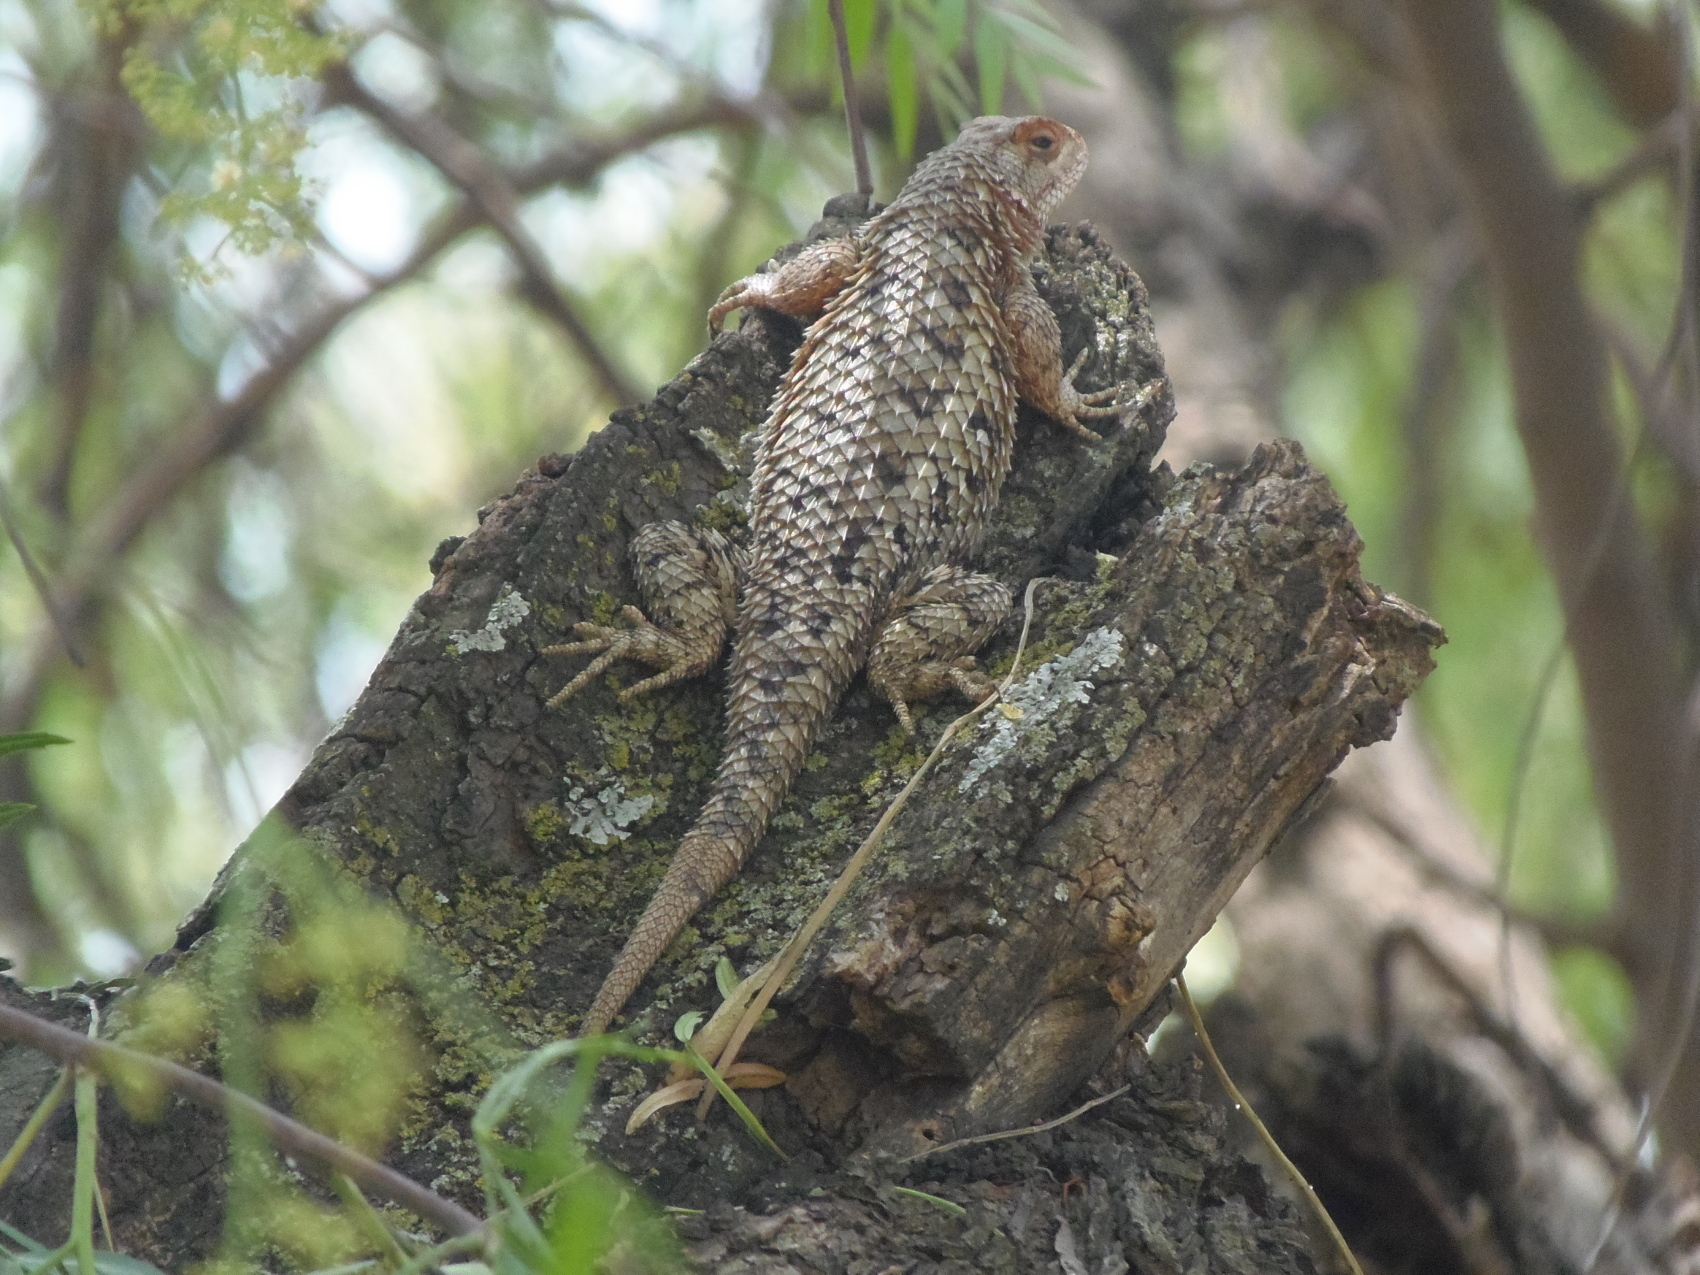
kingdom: Animalia
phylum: Chordata
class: Squamata
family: Phrynosomatidae
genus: Sceloporus
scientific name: Sceloporus spinosus
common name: Blue-spotted spiny lizard [caeruleopunctatus]
